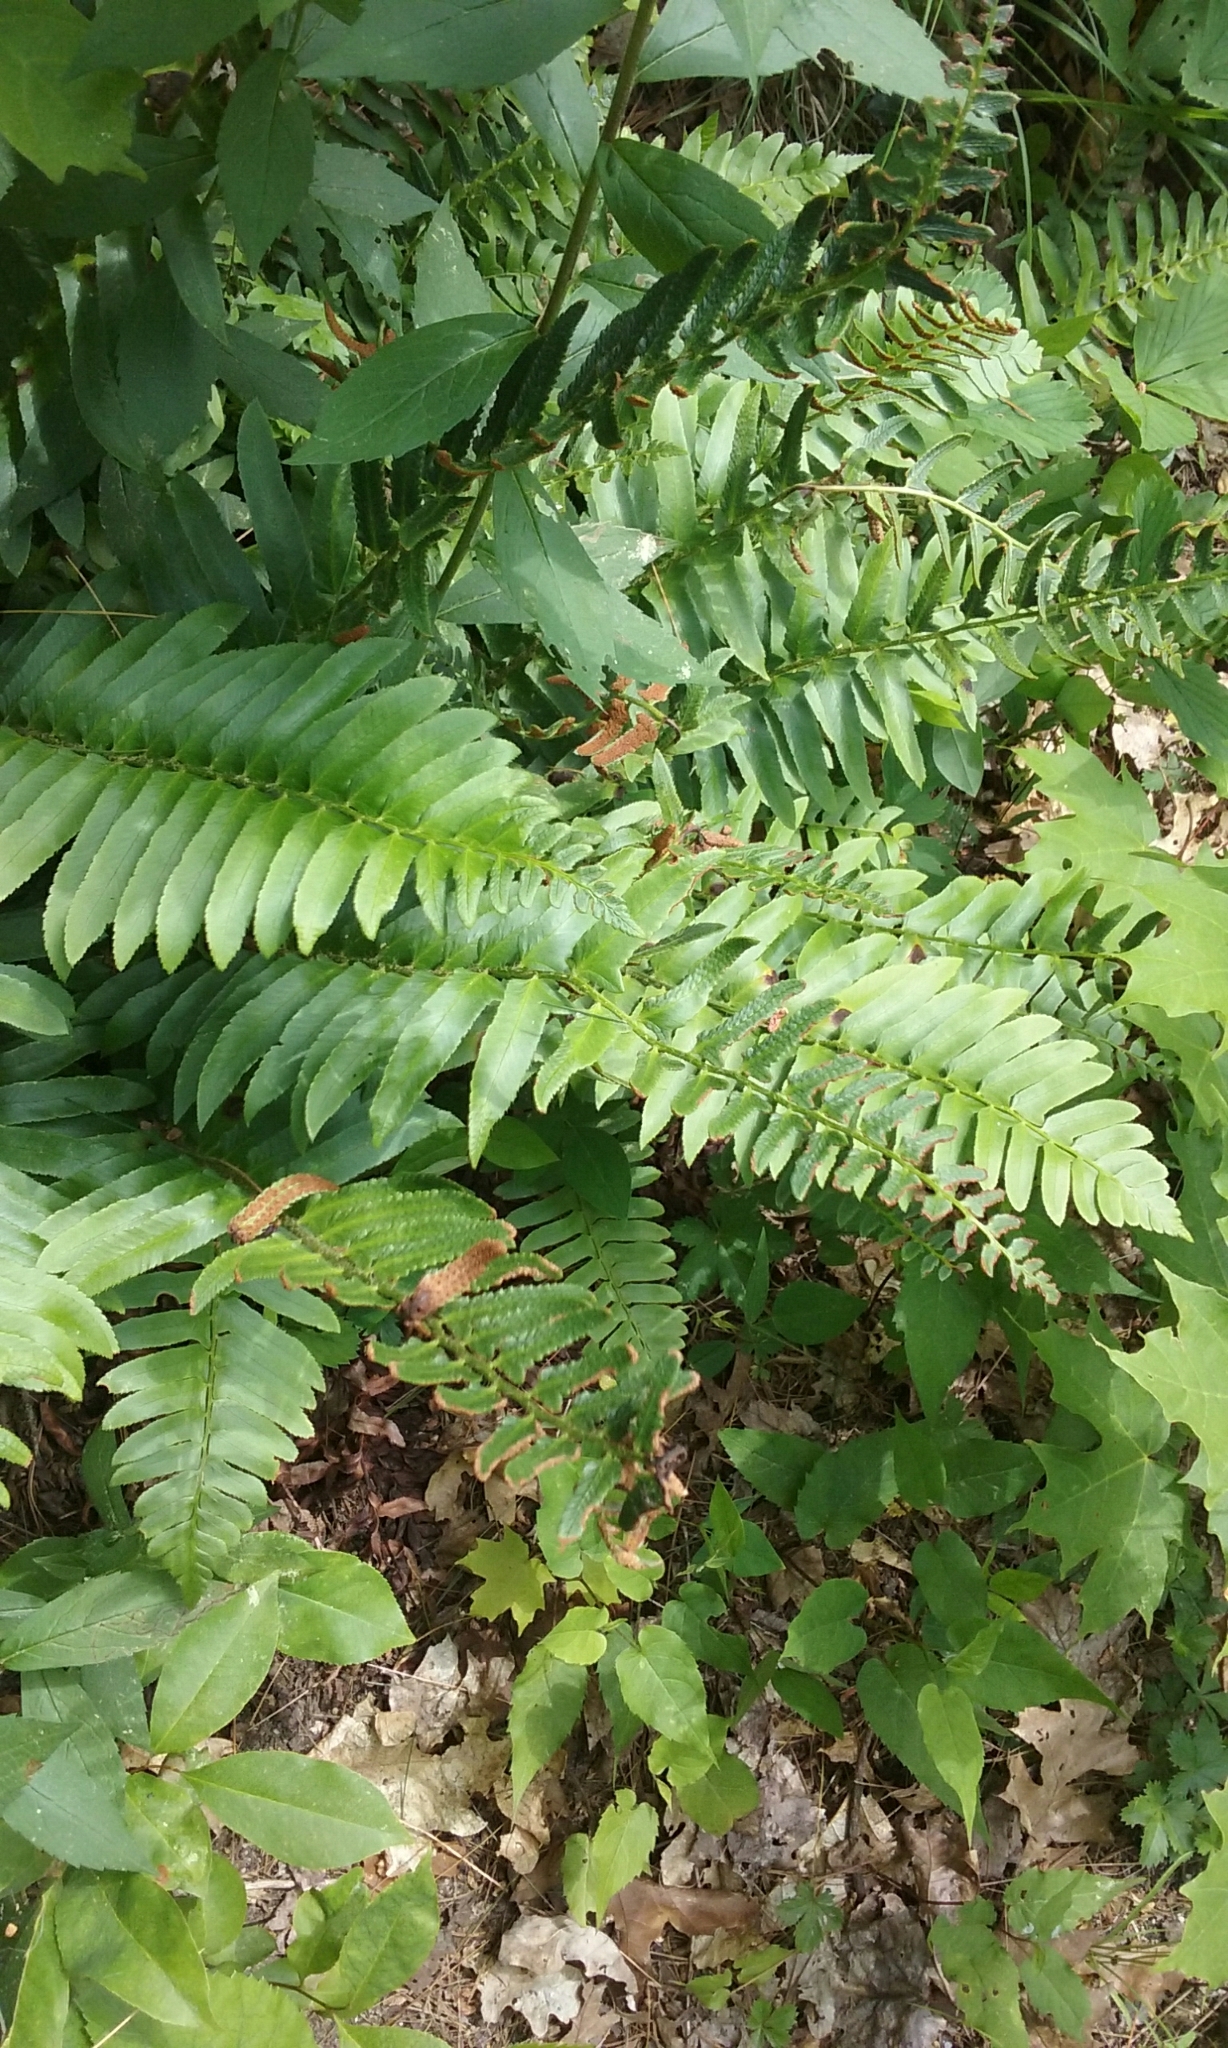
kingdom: Plantae
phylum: Tracheophyta
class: Polypodiopsida
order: Polypodiales
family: Dryopteridaceae
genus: Polystichum
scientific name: Polystichum acrostichoides
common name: Christmas fern
